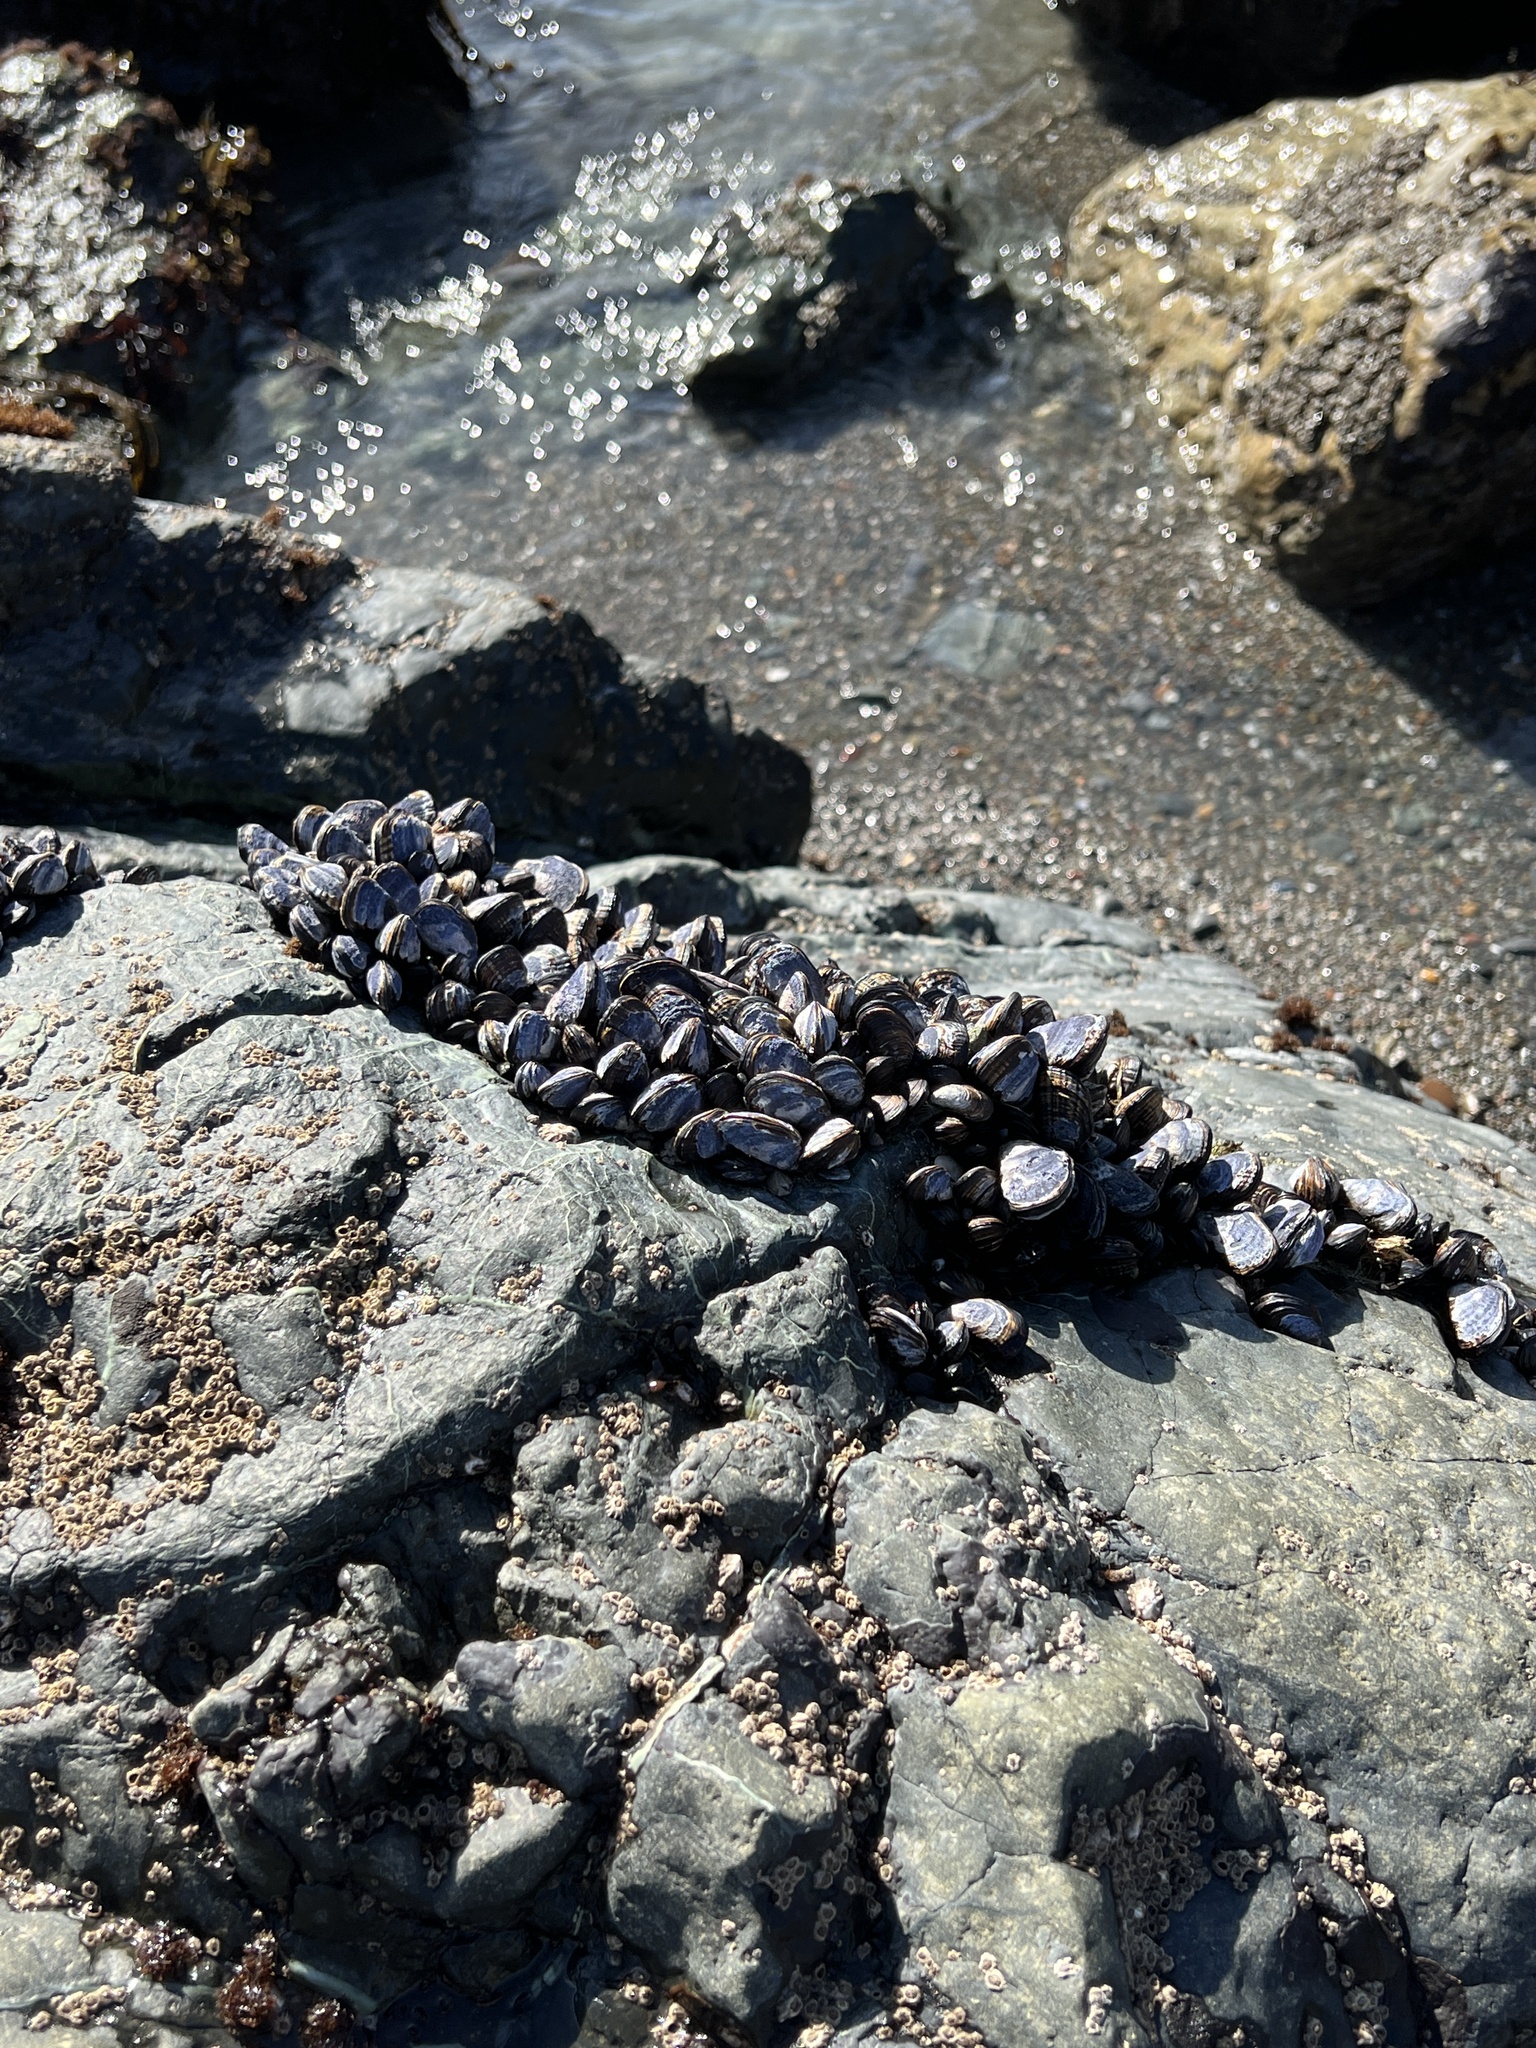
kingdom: Animalia
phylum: Mollusca
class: Bivalvia
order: Mytilida
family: Mytilidae
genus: Mytilus
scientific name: Mytilus californianus
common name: California mussel
